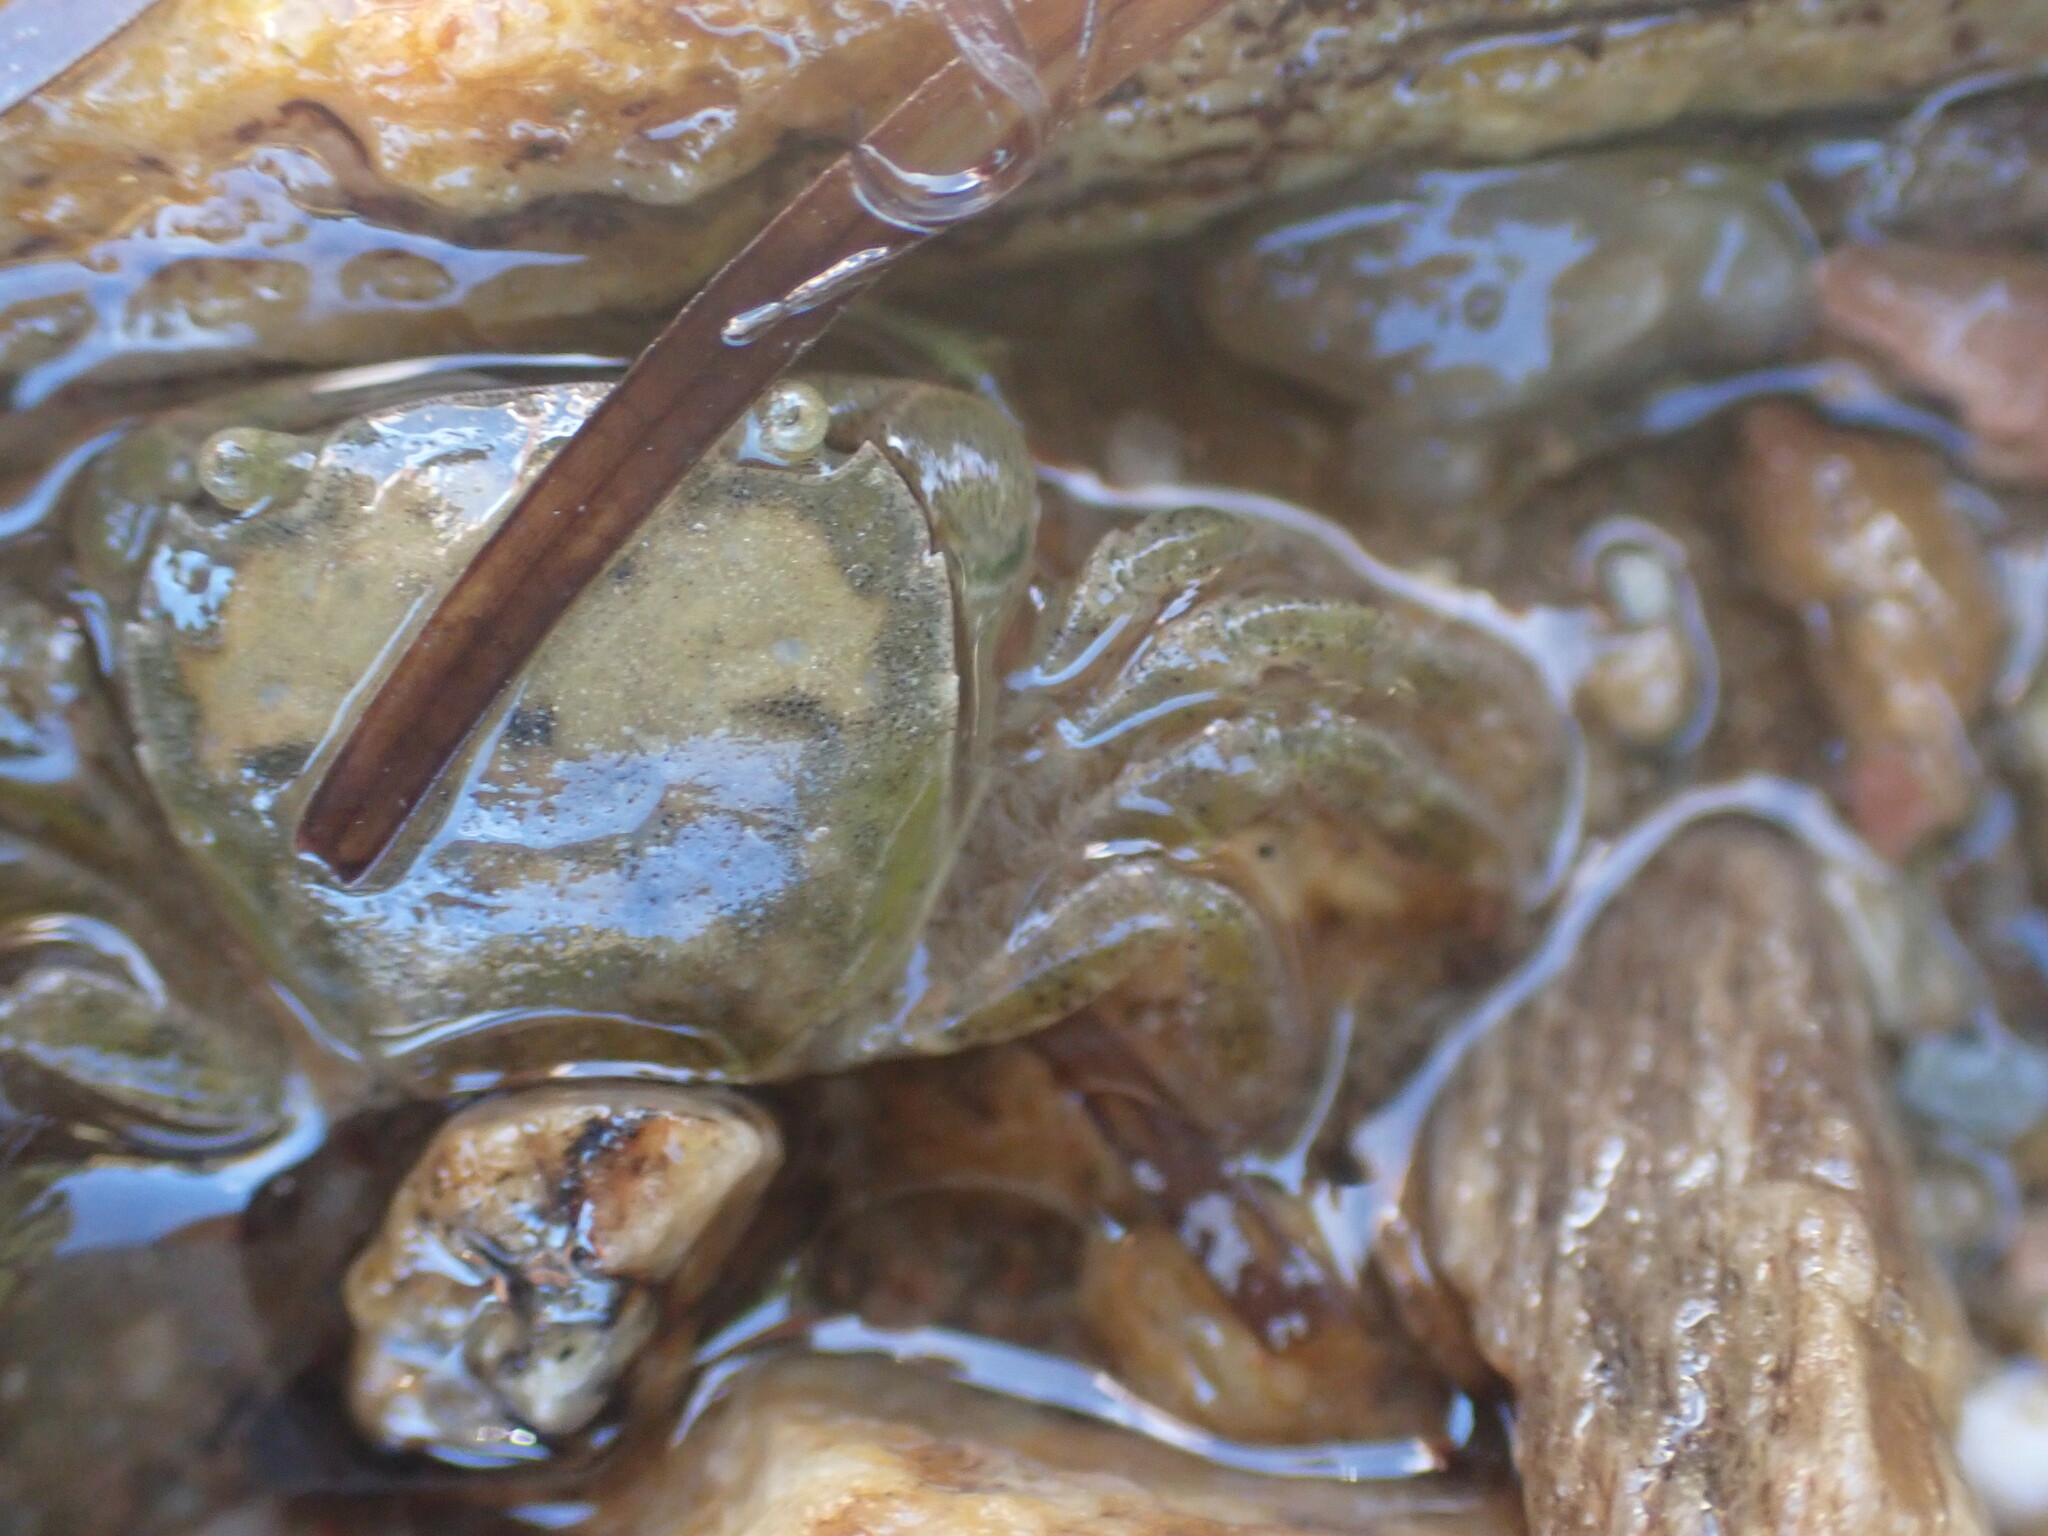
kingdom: Animalia
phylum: Arthropoda
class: Malacostraca
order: Decapoda
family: Varunidae
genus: Hemigrapsus
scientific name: Hemigrapsus crenulatus
